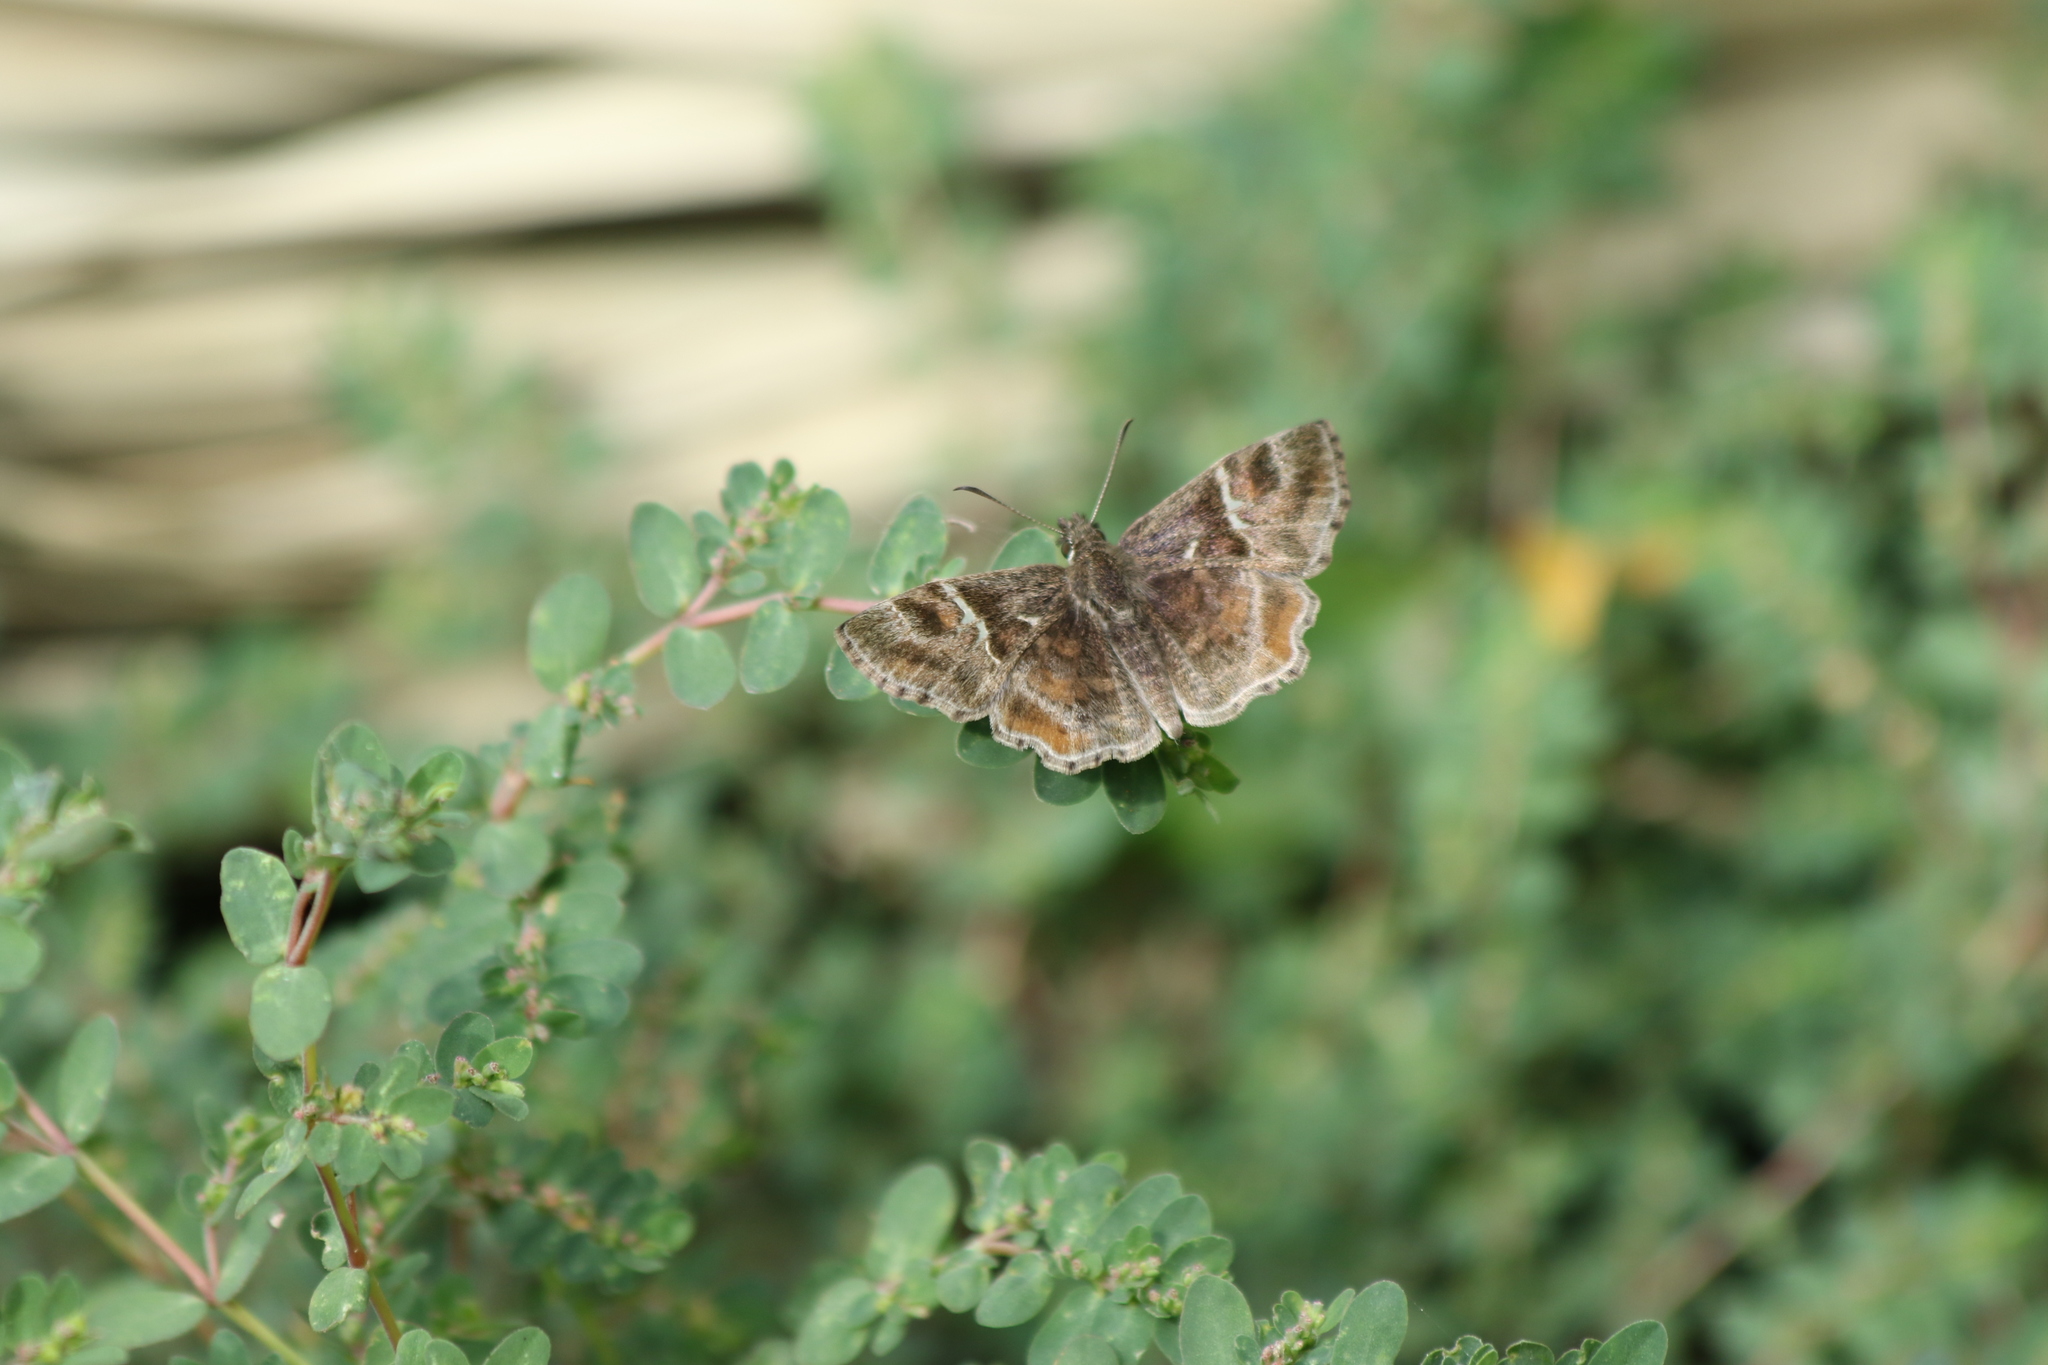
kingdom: Animalia
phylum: Arthropoda
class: Insecta
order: Lepidoptera
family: Hesperiidae
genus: Systasea
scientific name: Systasea pulverulenta
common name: Texas powdered skipper
